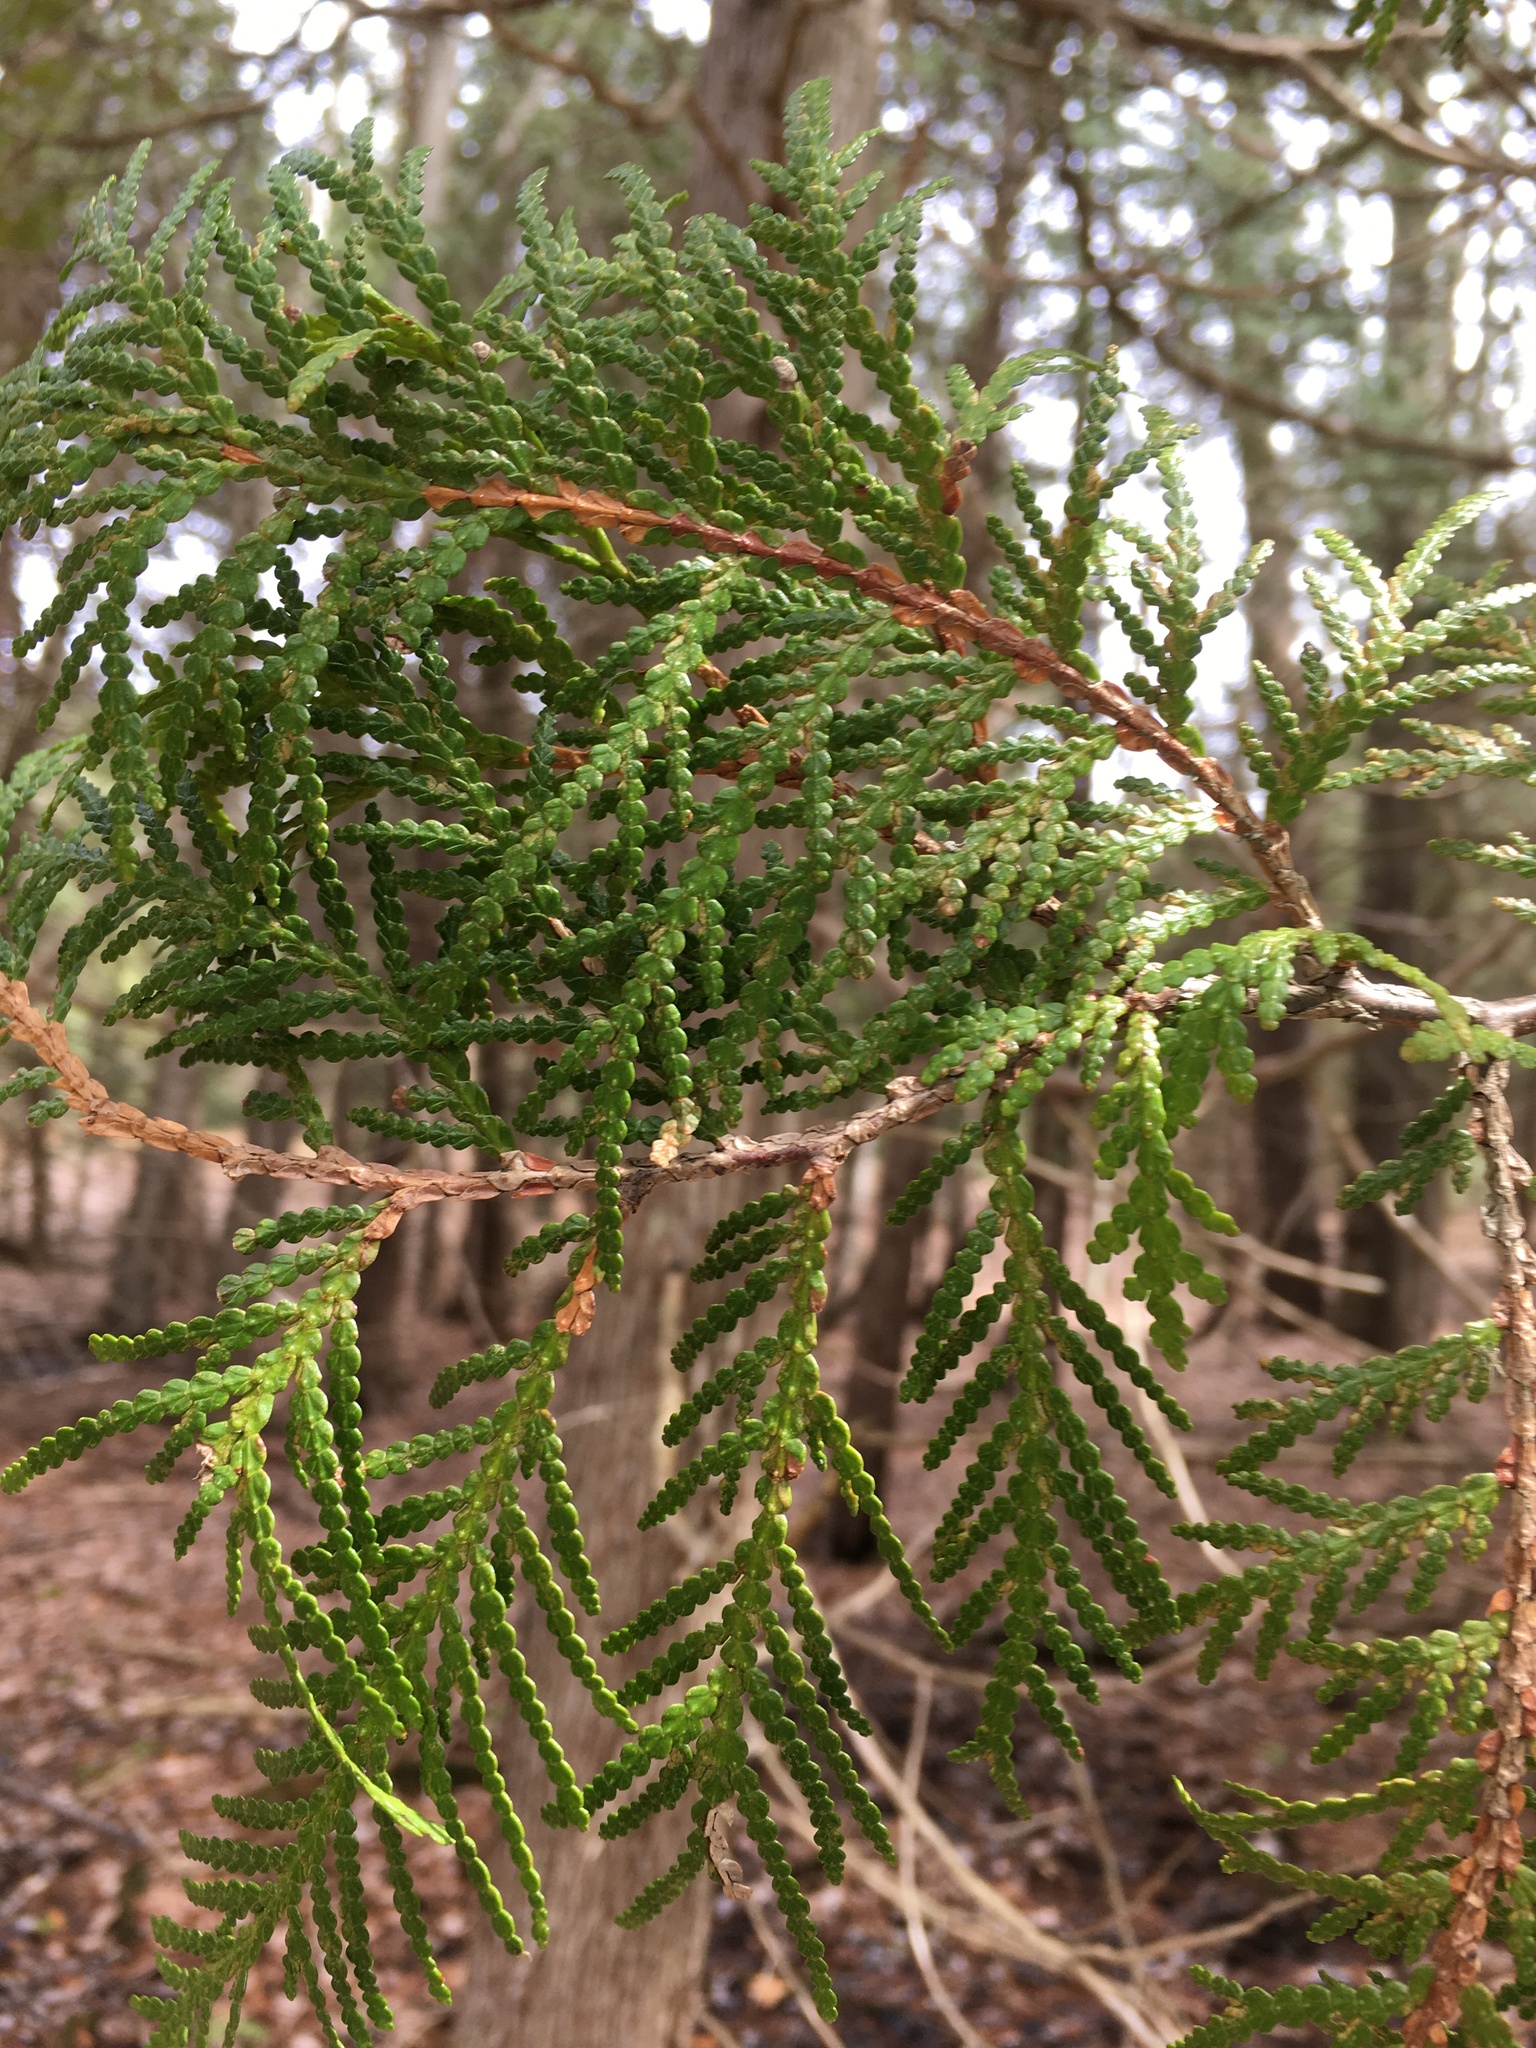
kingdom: Plantae
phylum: Tracheophyta
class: Pinopsida
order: Pinales
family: Cupressaceae
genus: Thuja
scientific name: Thuja occidentalis
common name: Northern white-cedar
